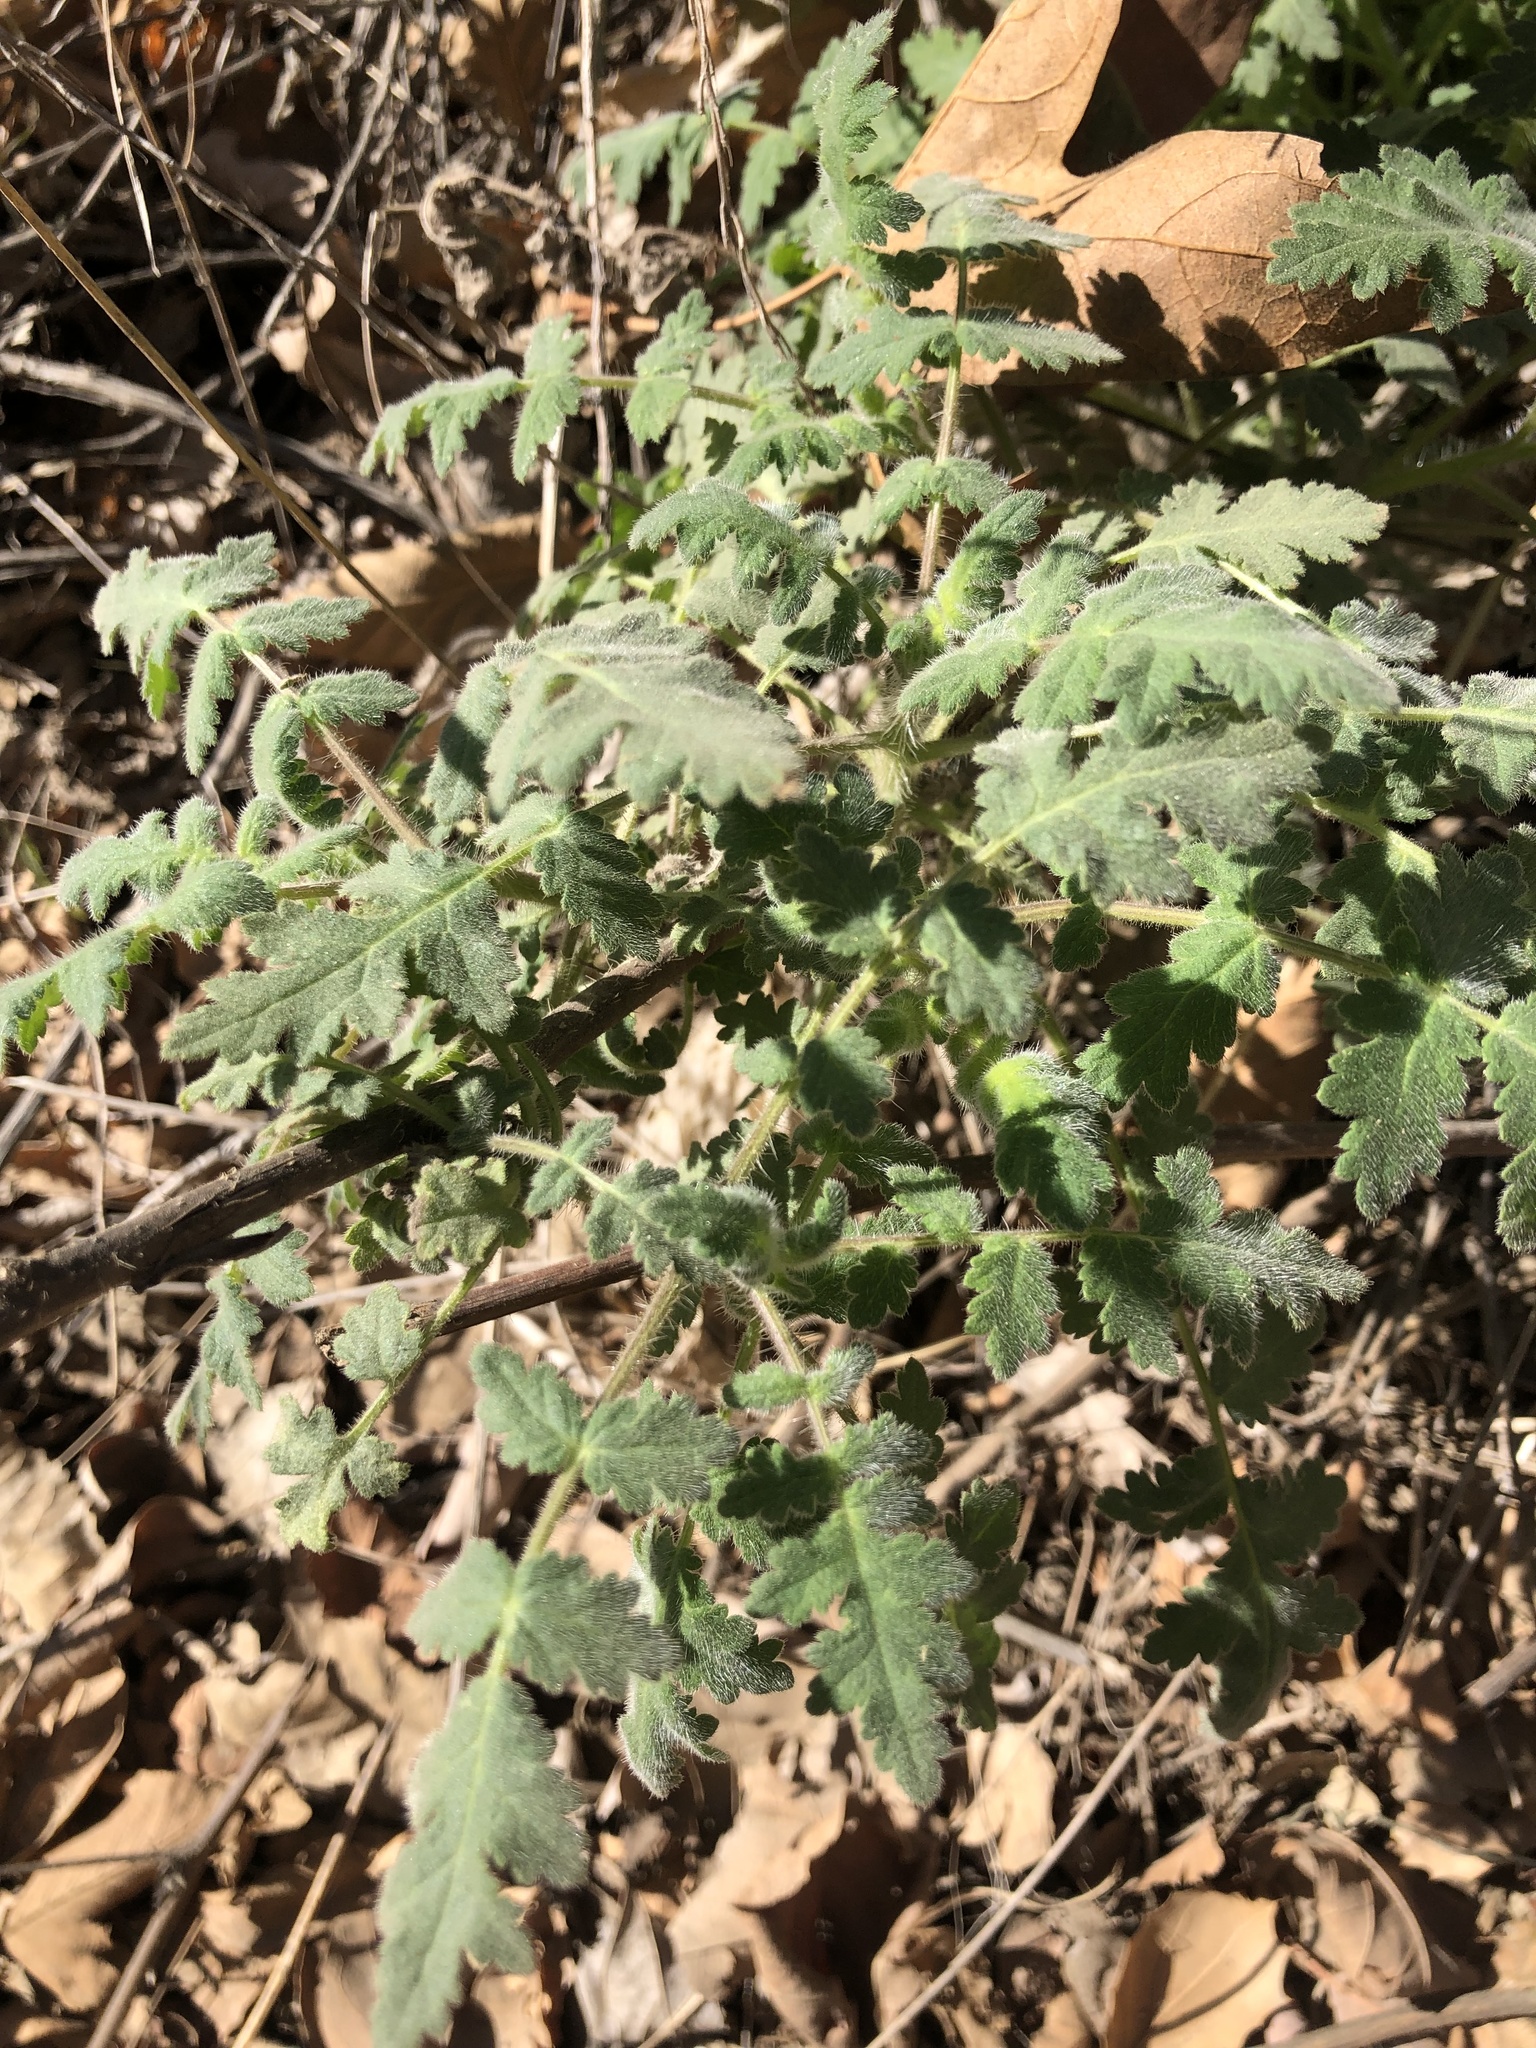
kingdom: Plantae
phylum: Tracheophyta
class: Magnoliopsida
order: Boraginales
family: Hydrophyllaceae
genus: Phacelia
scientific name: Phacelia ramosissima
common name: Branching phacelia
